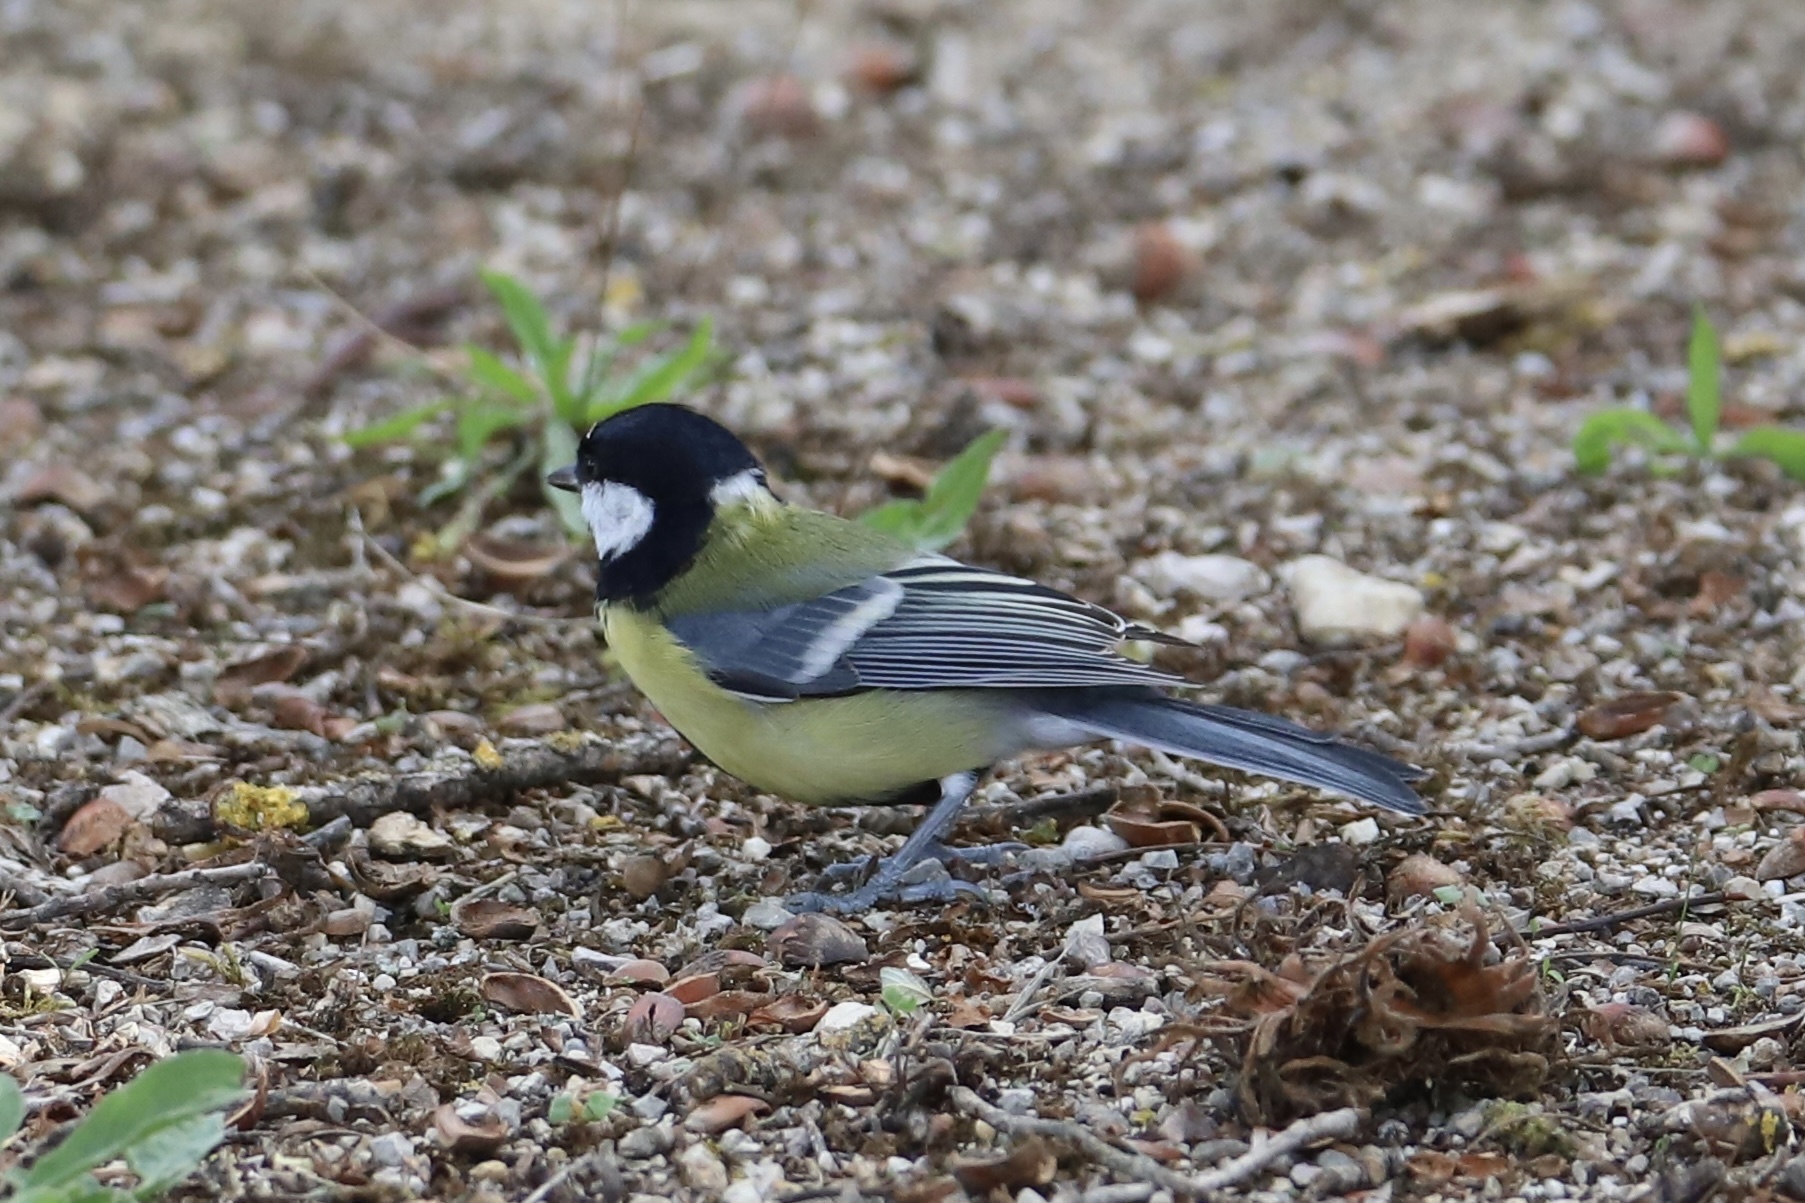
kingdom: Animalia
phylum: Chordata
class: Aves
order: Passeriformes
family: Paridae
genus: Parus
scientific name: Parus major
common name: Great tit
